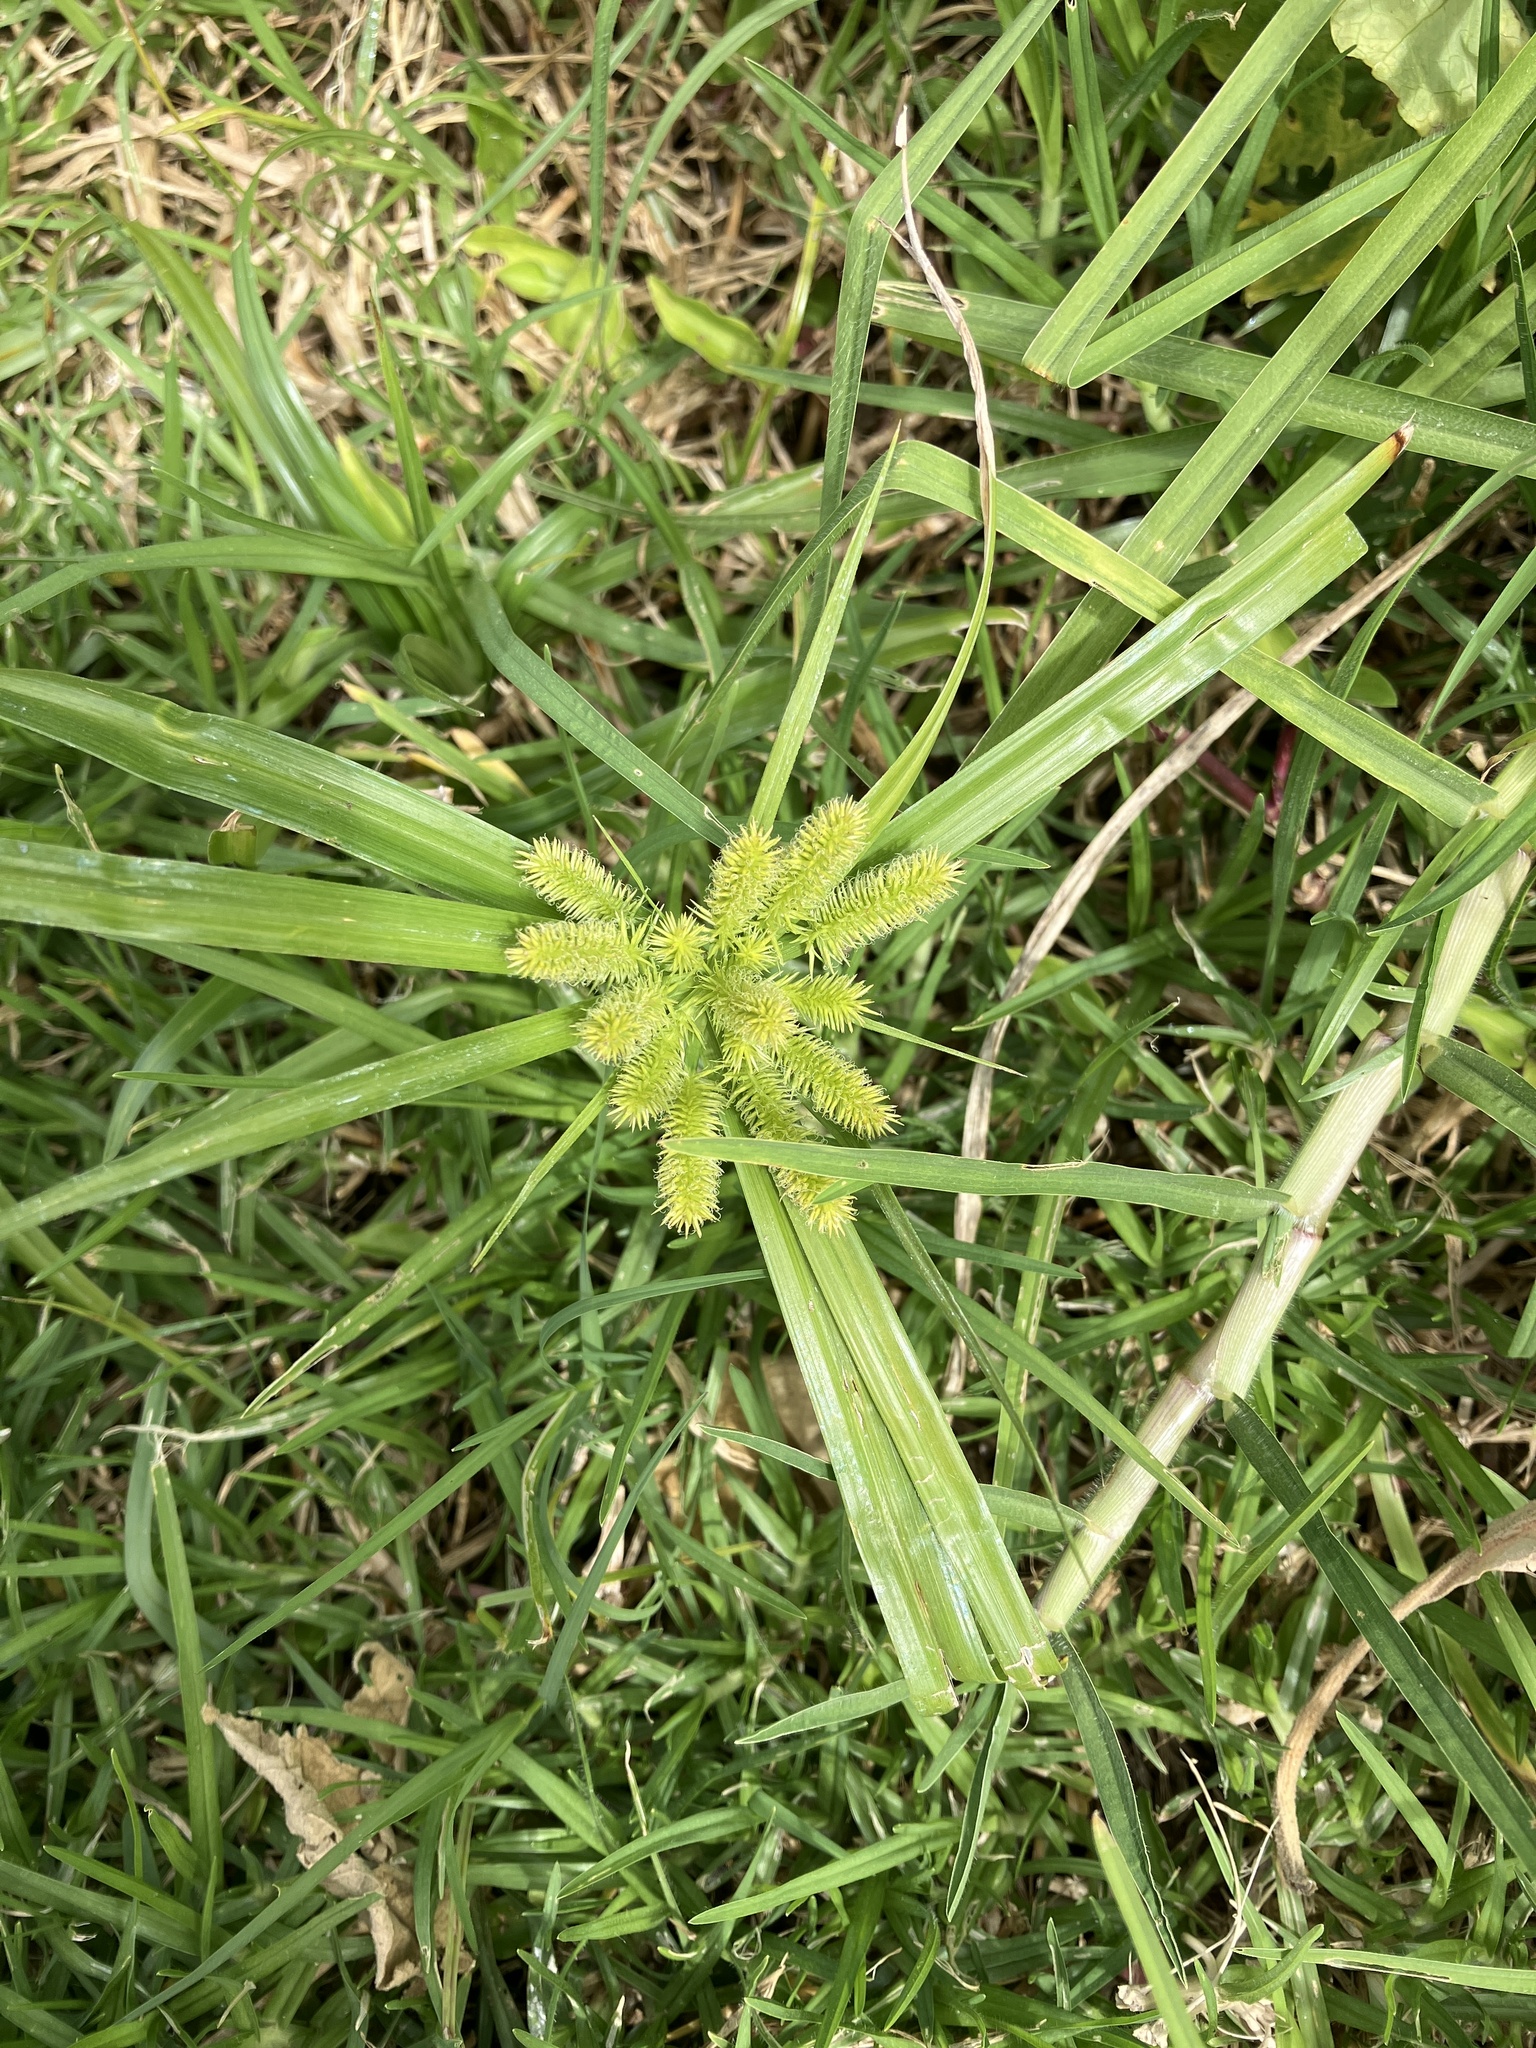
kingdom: Plantae
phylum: Tracheophyta
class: Liliopsida
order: Poales
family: Cyperaceae
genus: Cyperus
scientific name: Cyperus cyperoides
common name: Pacific island flat sedge
